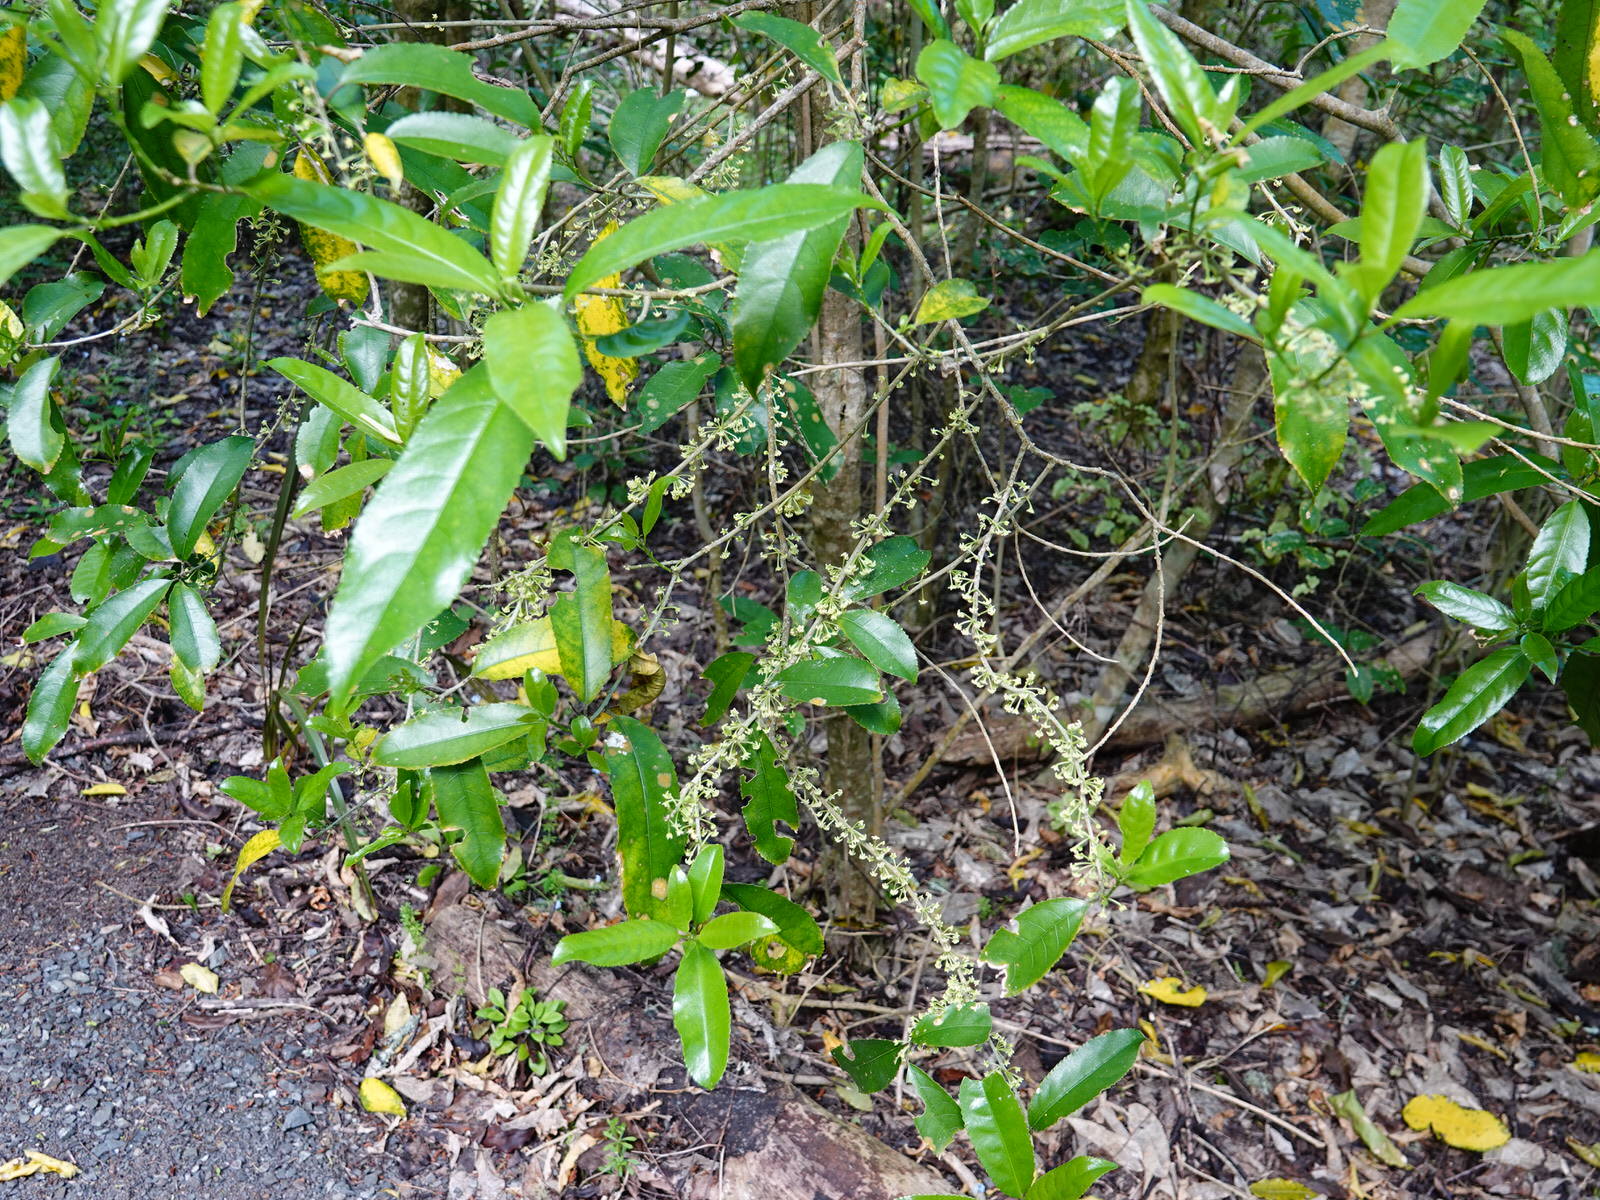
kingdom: Plantae
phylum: Tracheophyta
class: Magnoliopsida
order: Malpighiales
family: Violaceae
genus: Melicytus
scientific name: Melicytus ramiflorus
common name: Mahoe
